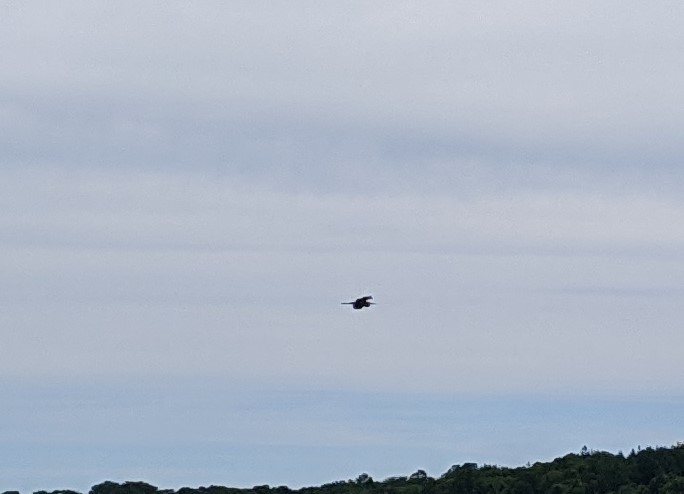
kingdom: Animalia
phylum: Chordata
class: Aves
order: Pelecaniformes
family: Ardeidae
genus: Ardea
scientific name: Ardea herodias
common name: Great blue heron
